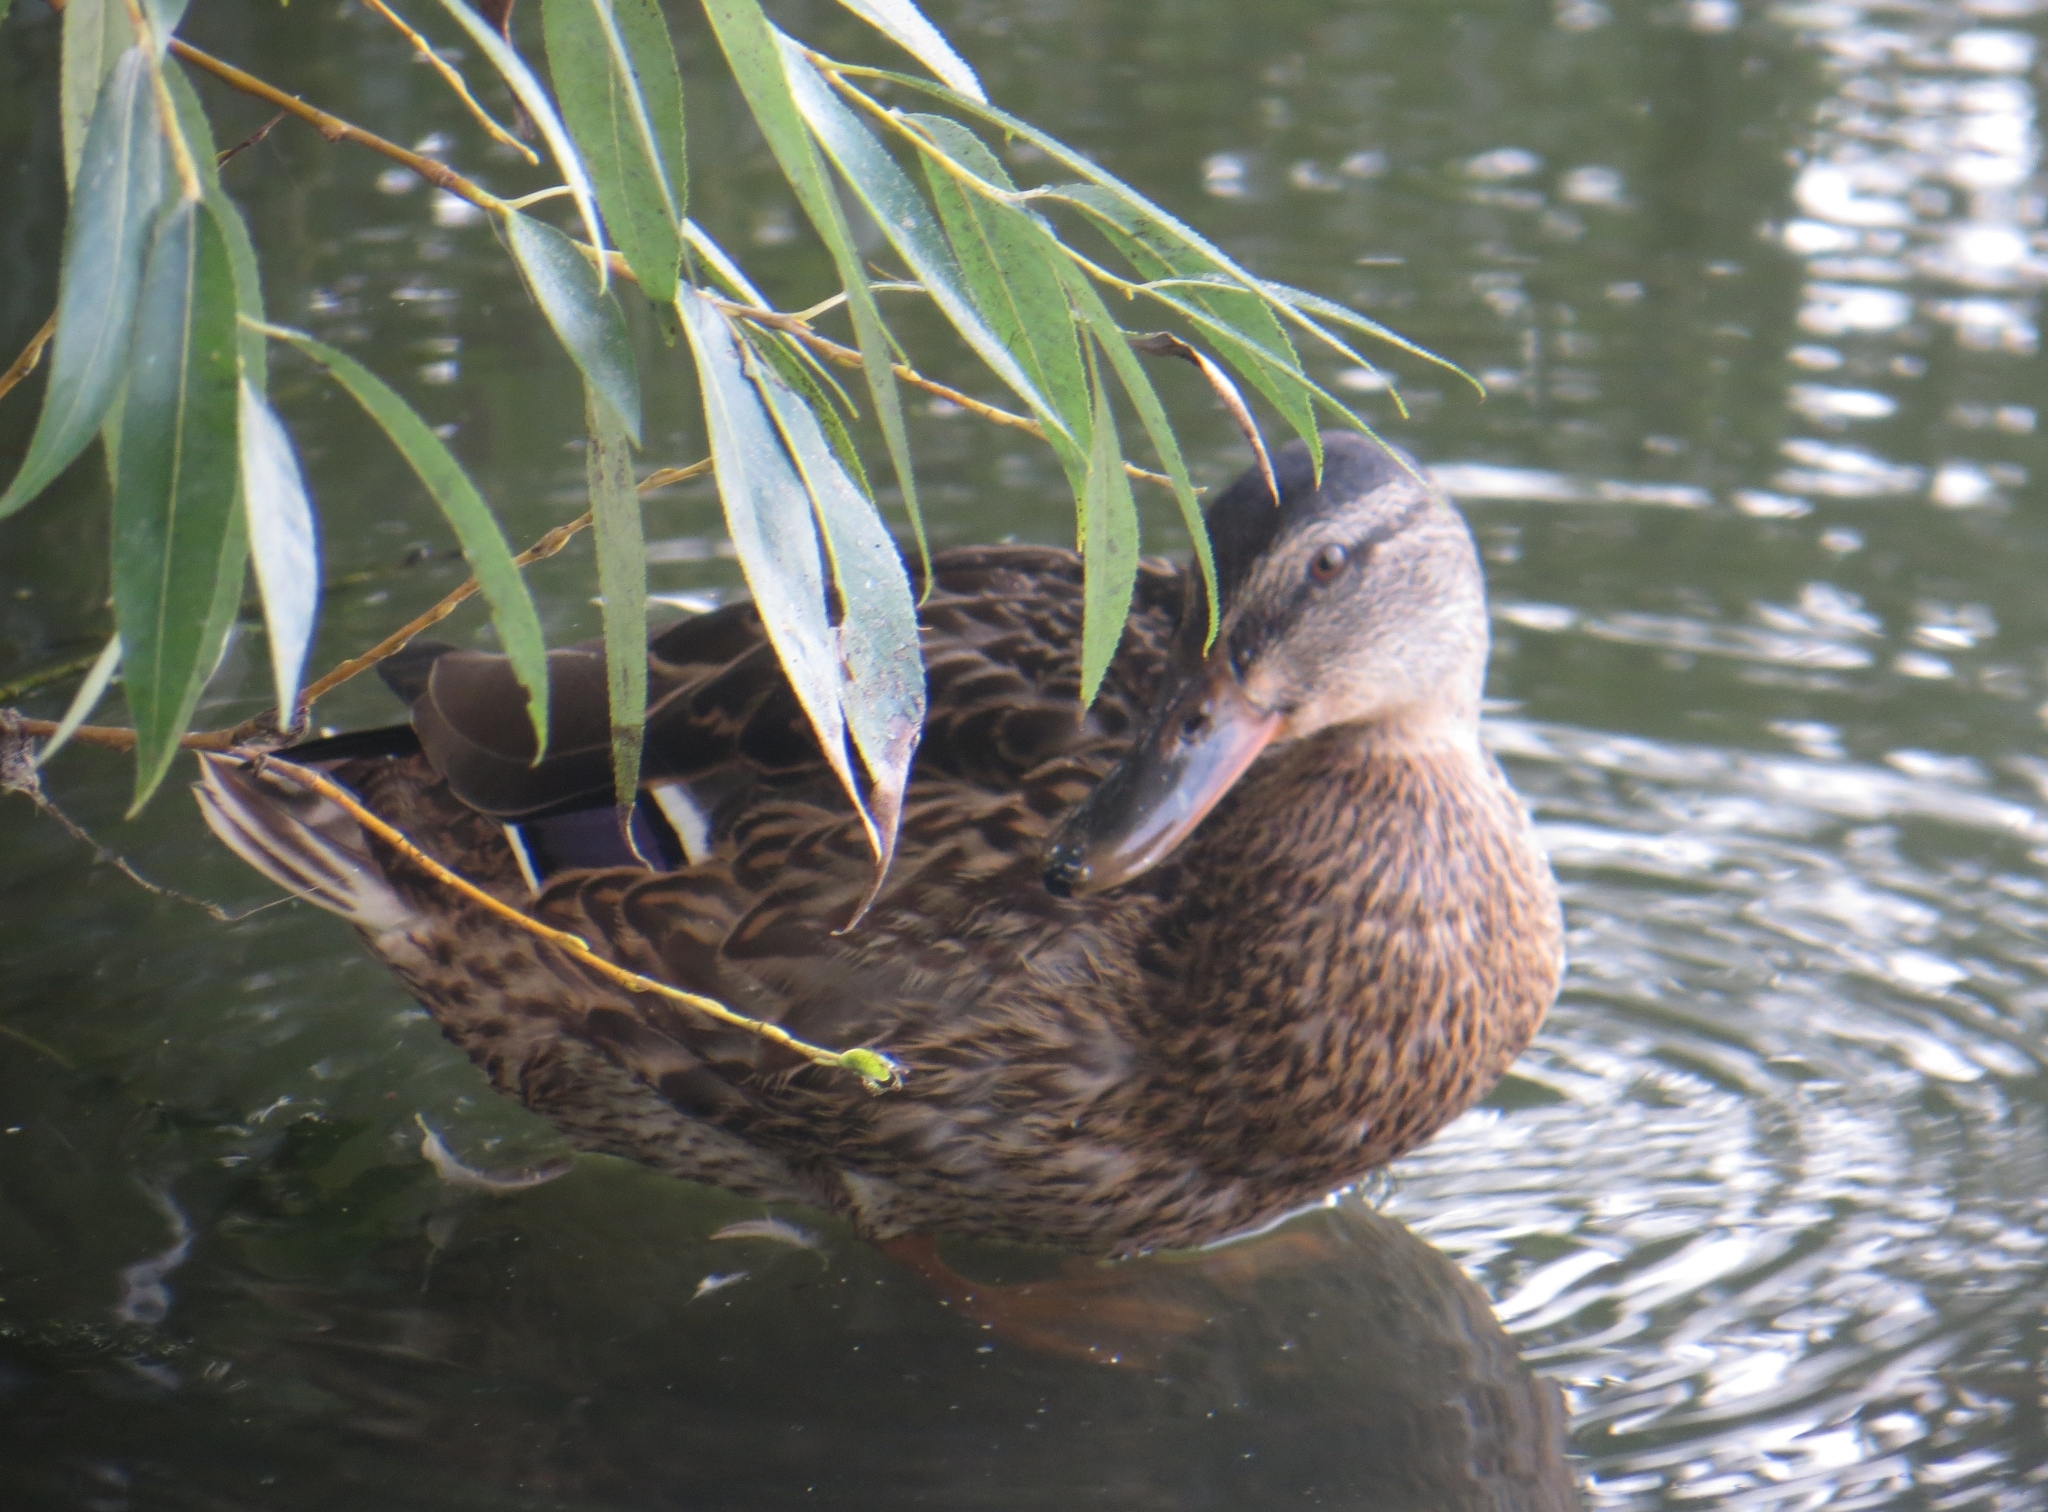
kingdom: Animalia
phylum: Chordata
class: Aves
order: Anseriformes
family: Anatidae
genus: Anas
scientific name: Anas platyrhynchos
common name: Mallard
